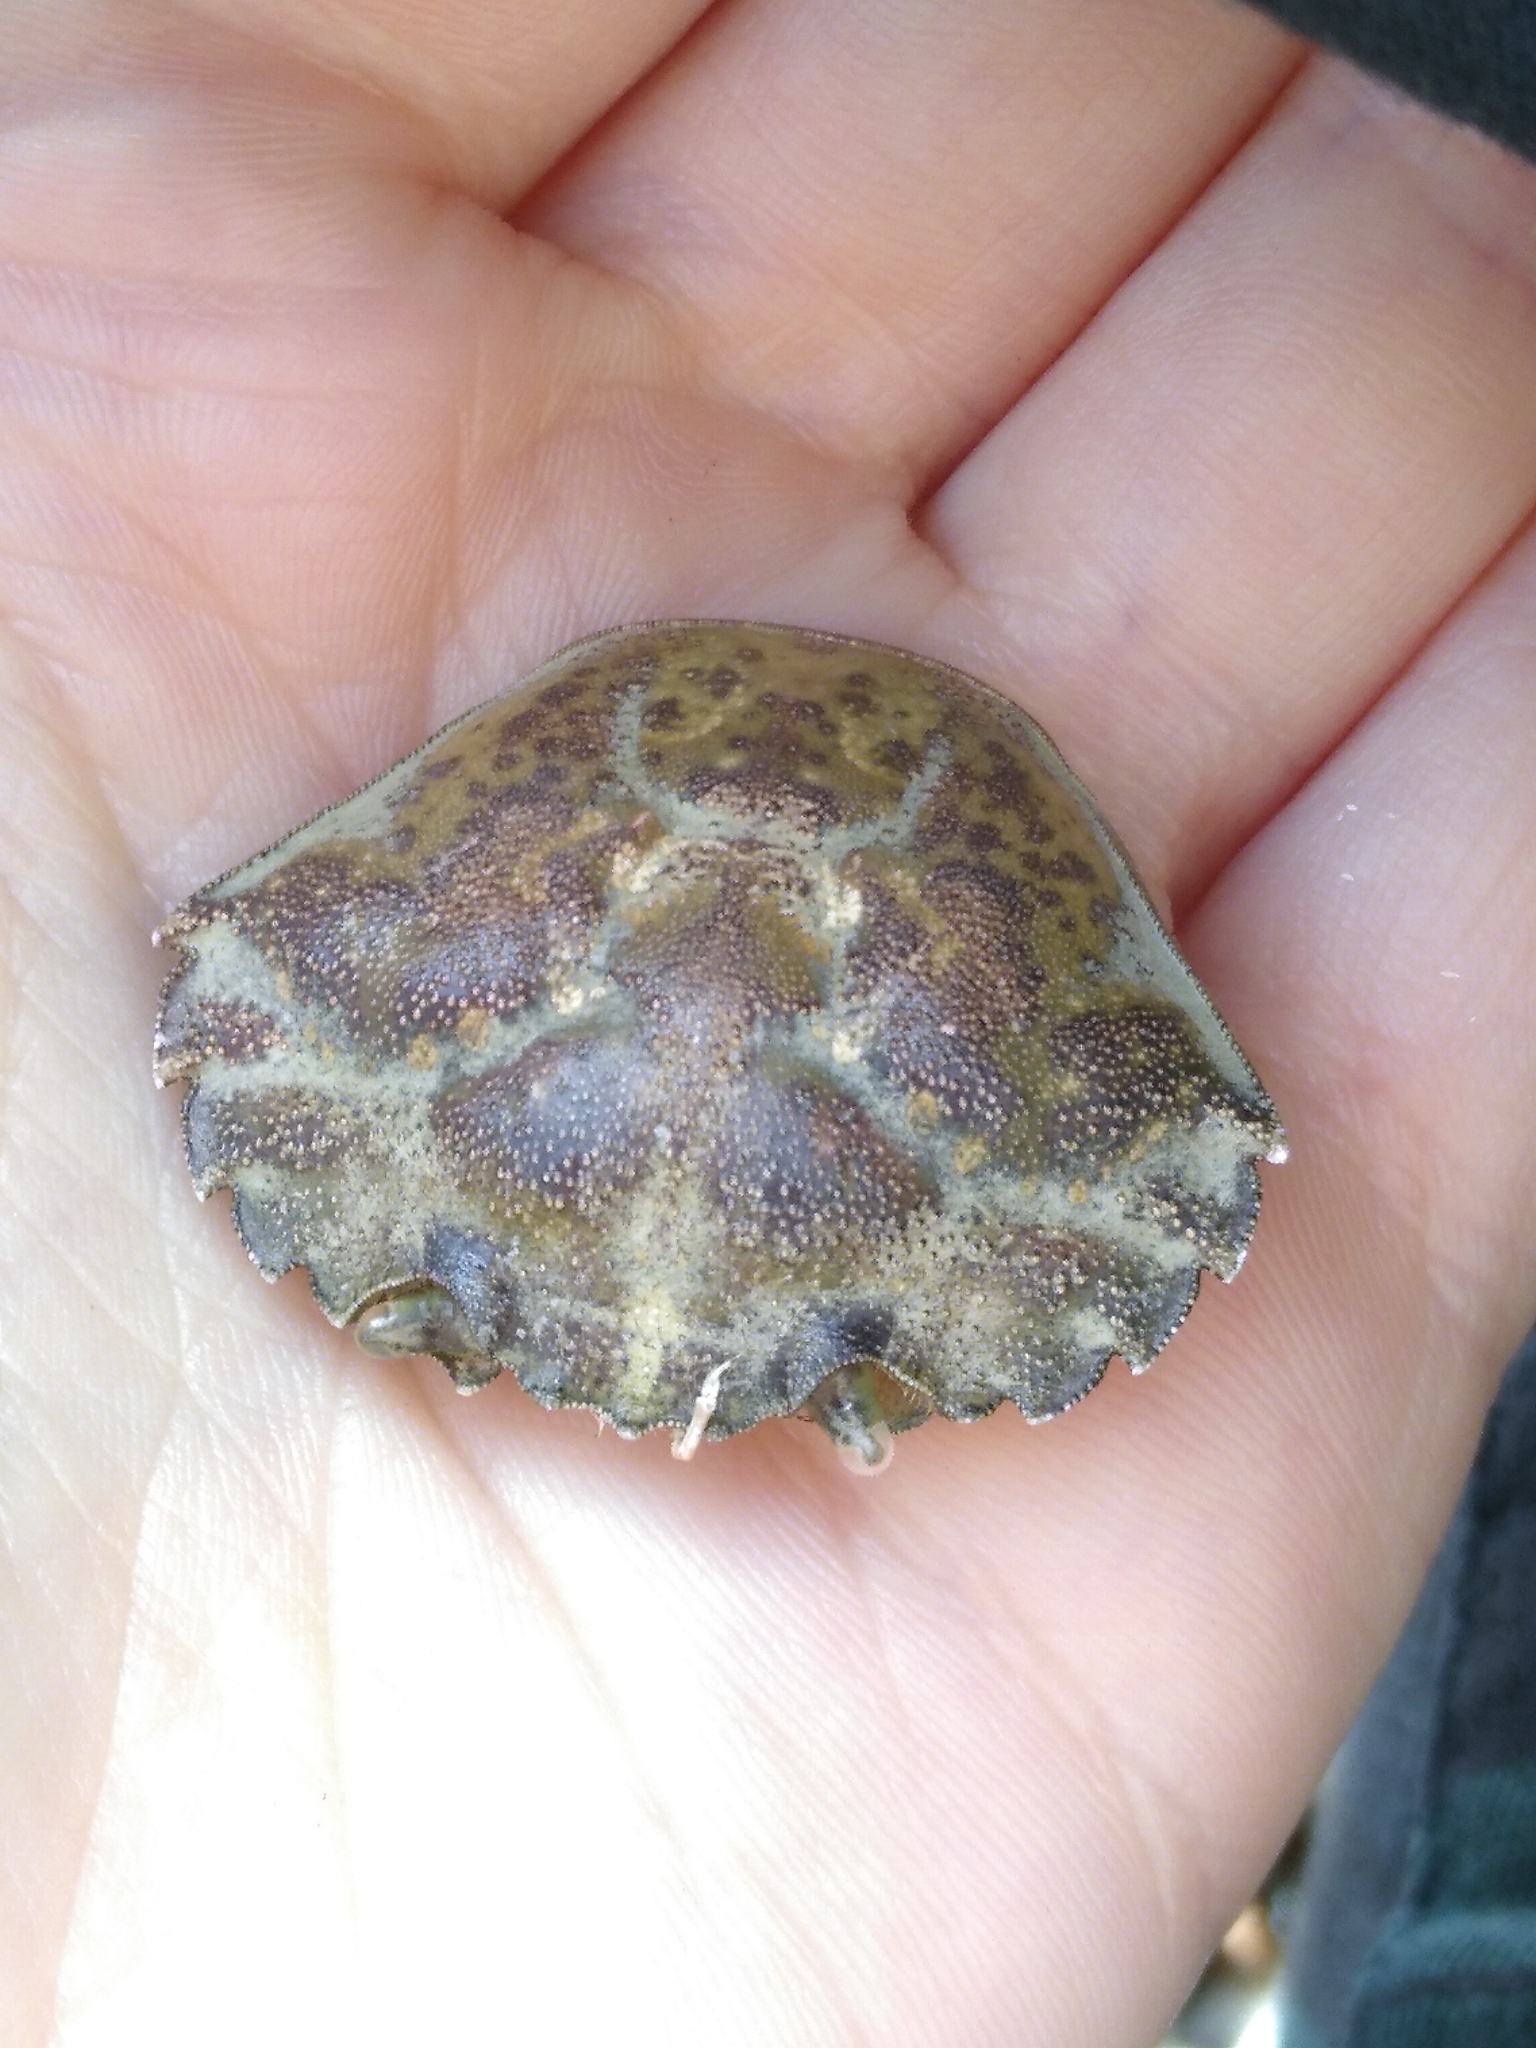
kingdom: Animalia
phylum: Arthropoda
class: Malacostraca
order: Decapoda
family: Carcinidae
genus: Carcinus
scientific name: Carcinus maenas
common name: European green crab
